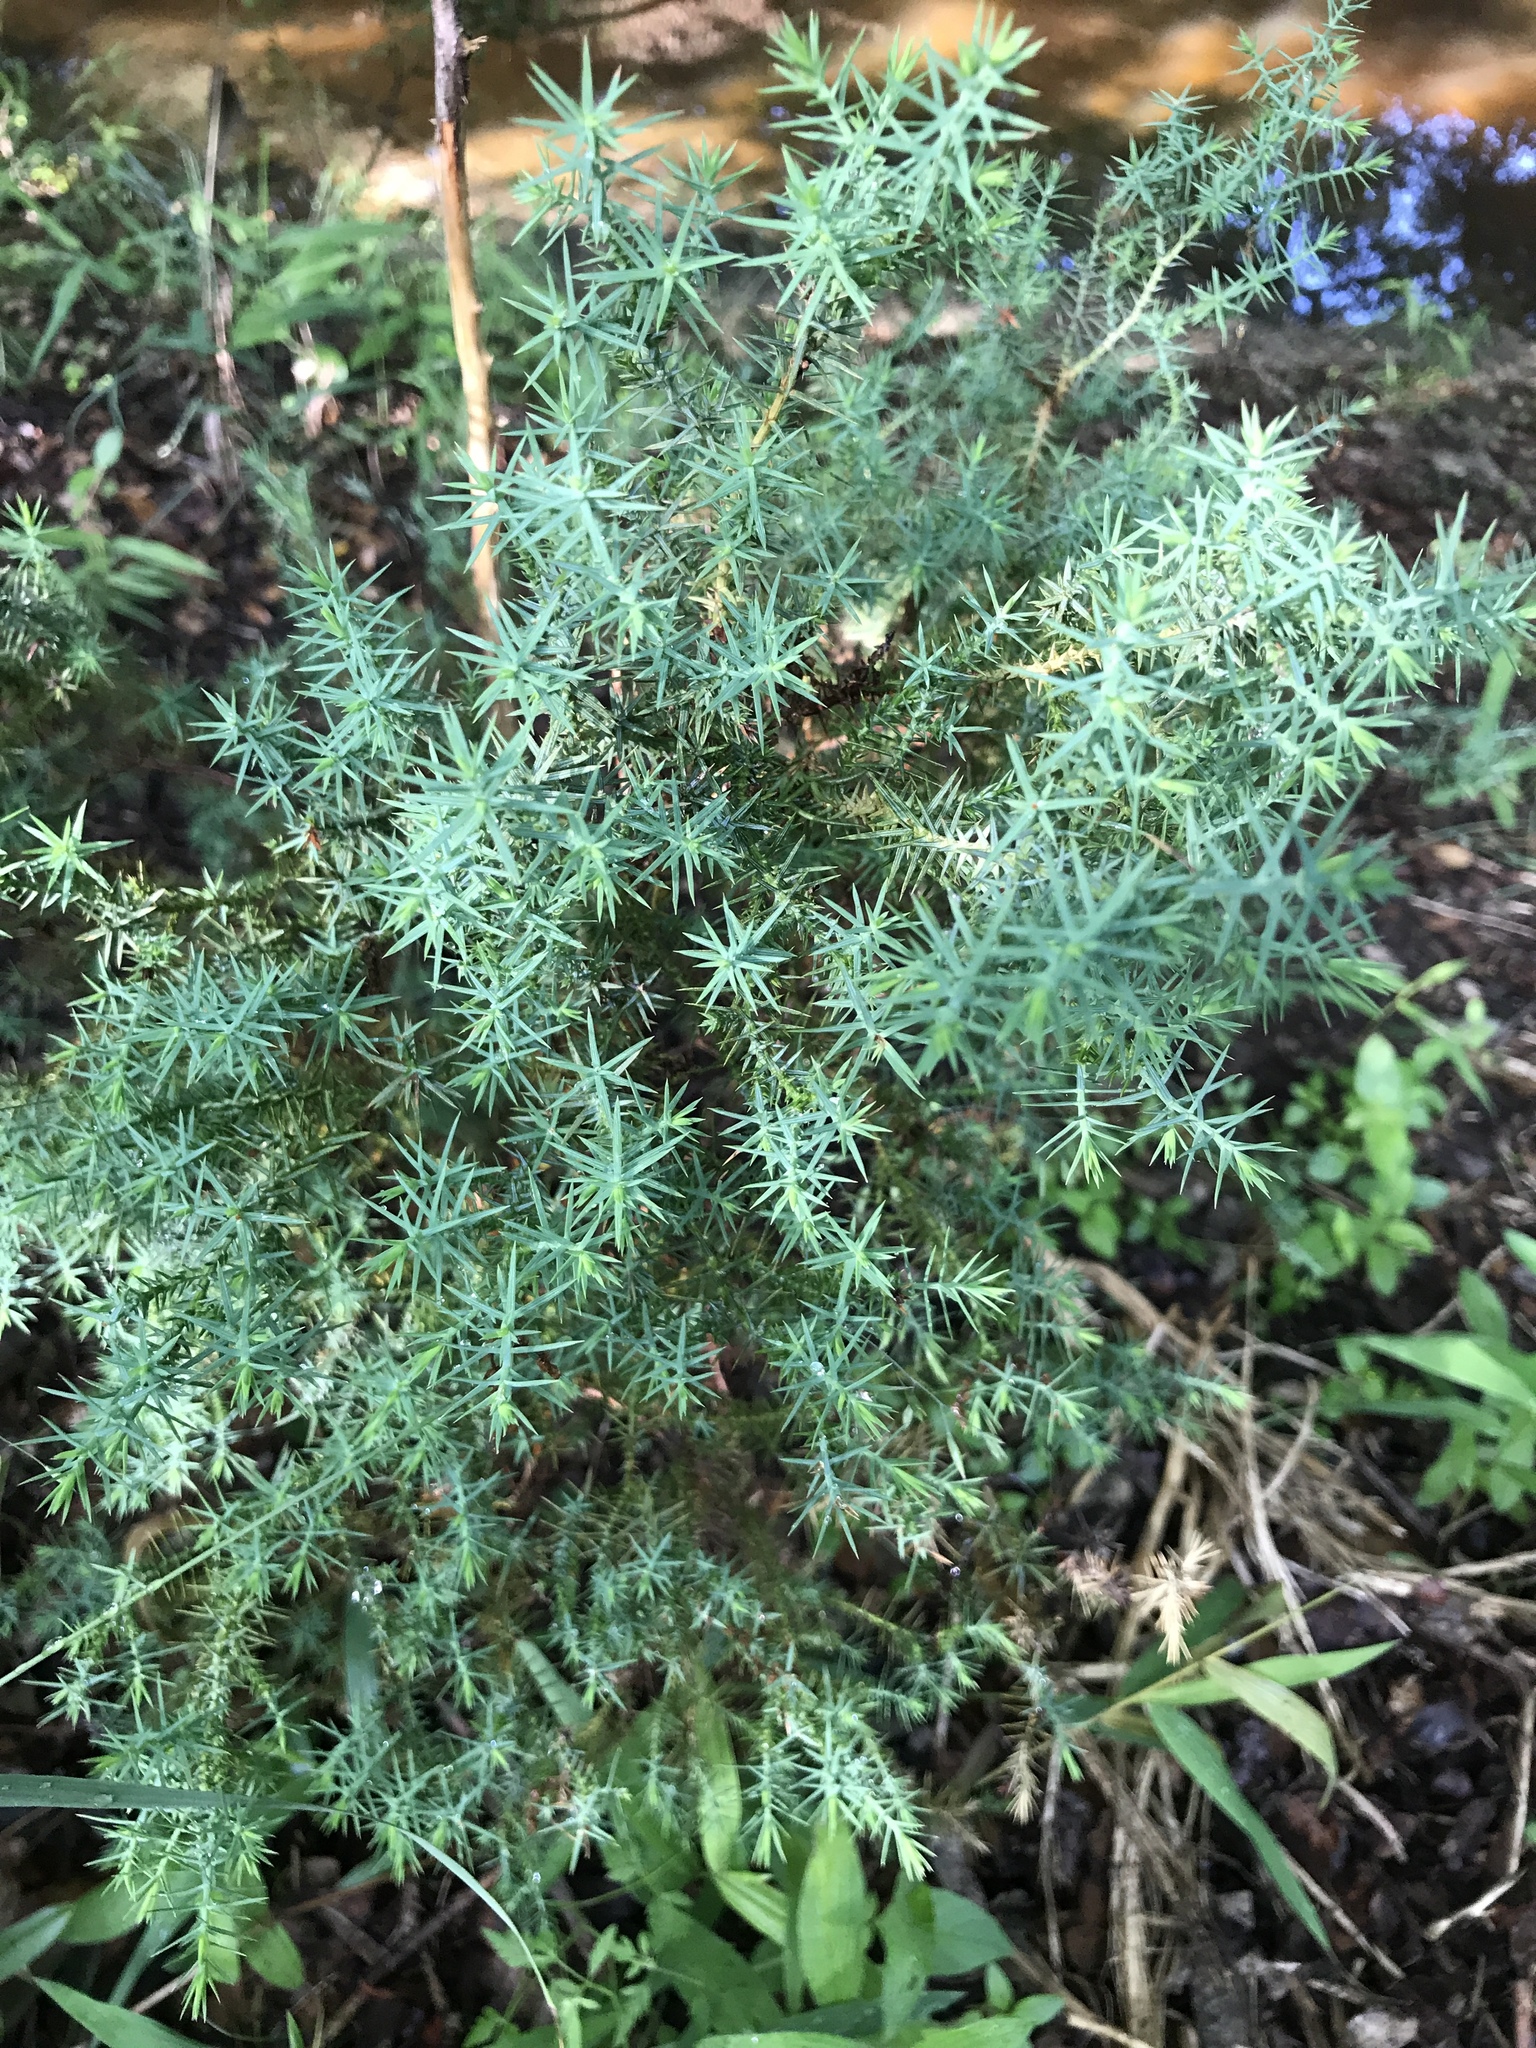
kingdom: Plantae
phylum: Tracheophyta
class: Pinopsida
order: Pinales
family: Cupressaceae
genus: Juniperus
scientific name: Juniperus ashei
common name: Mexican juniper
